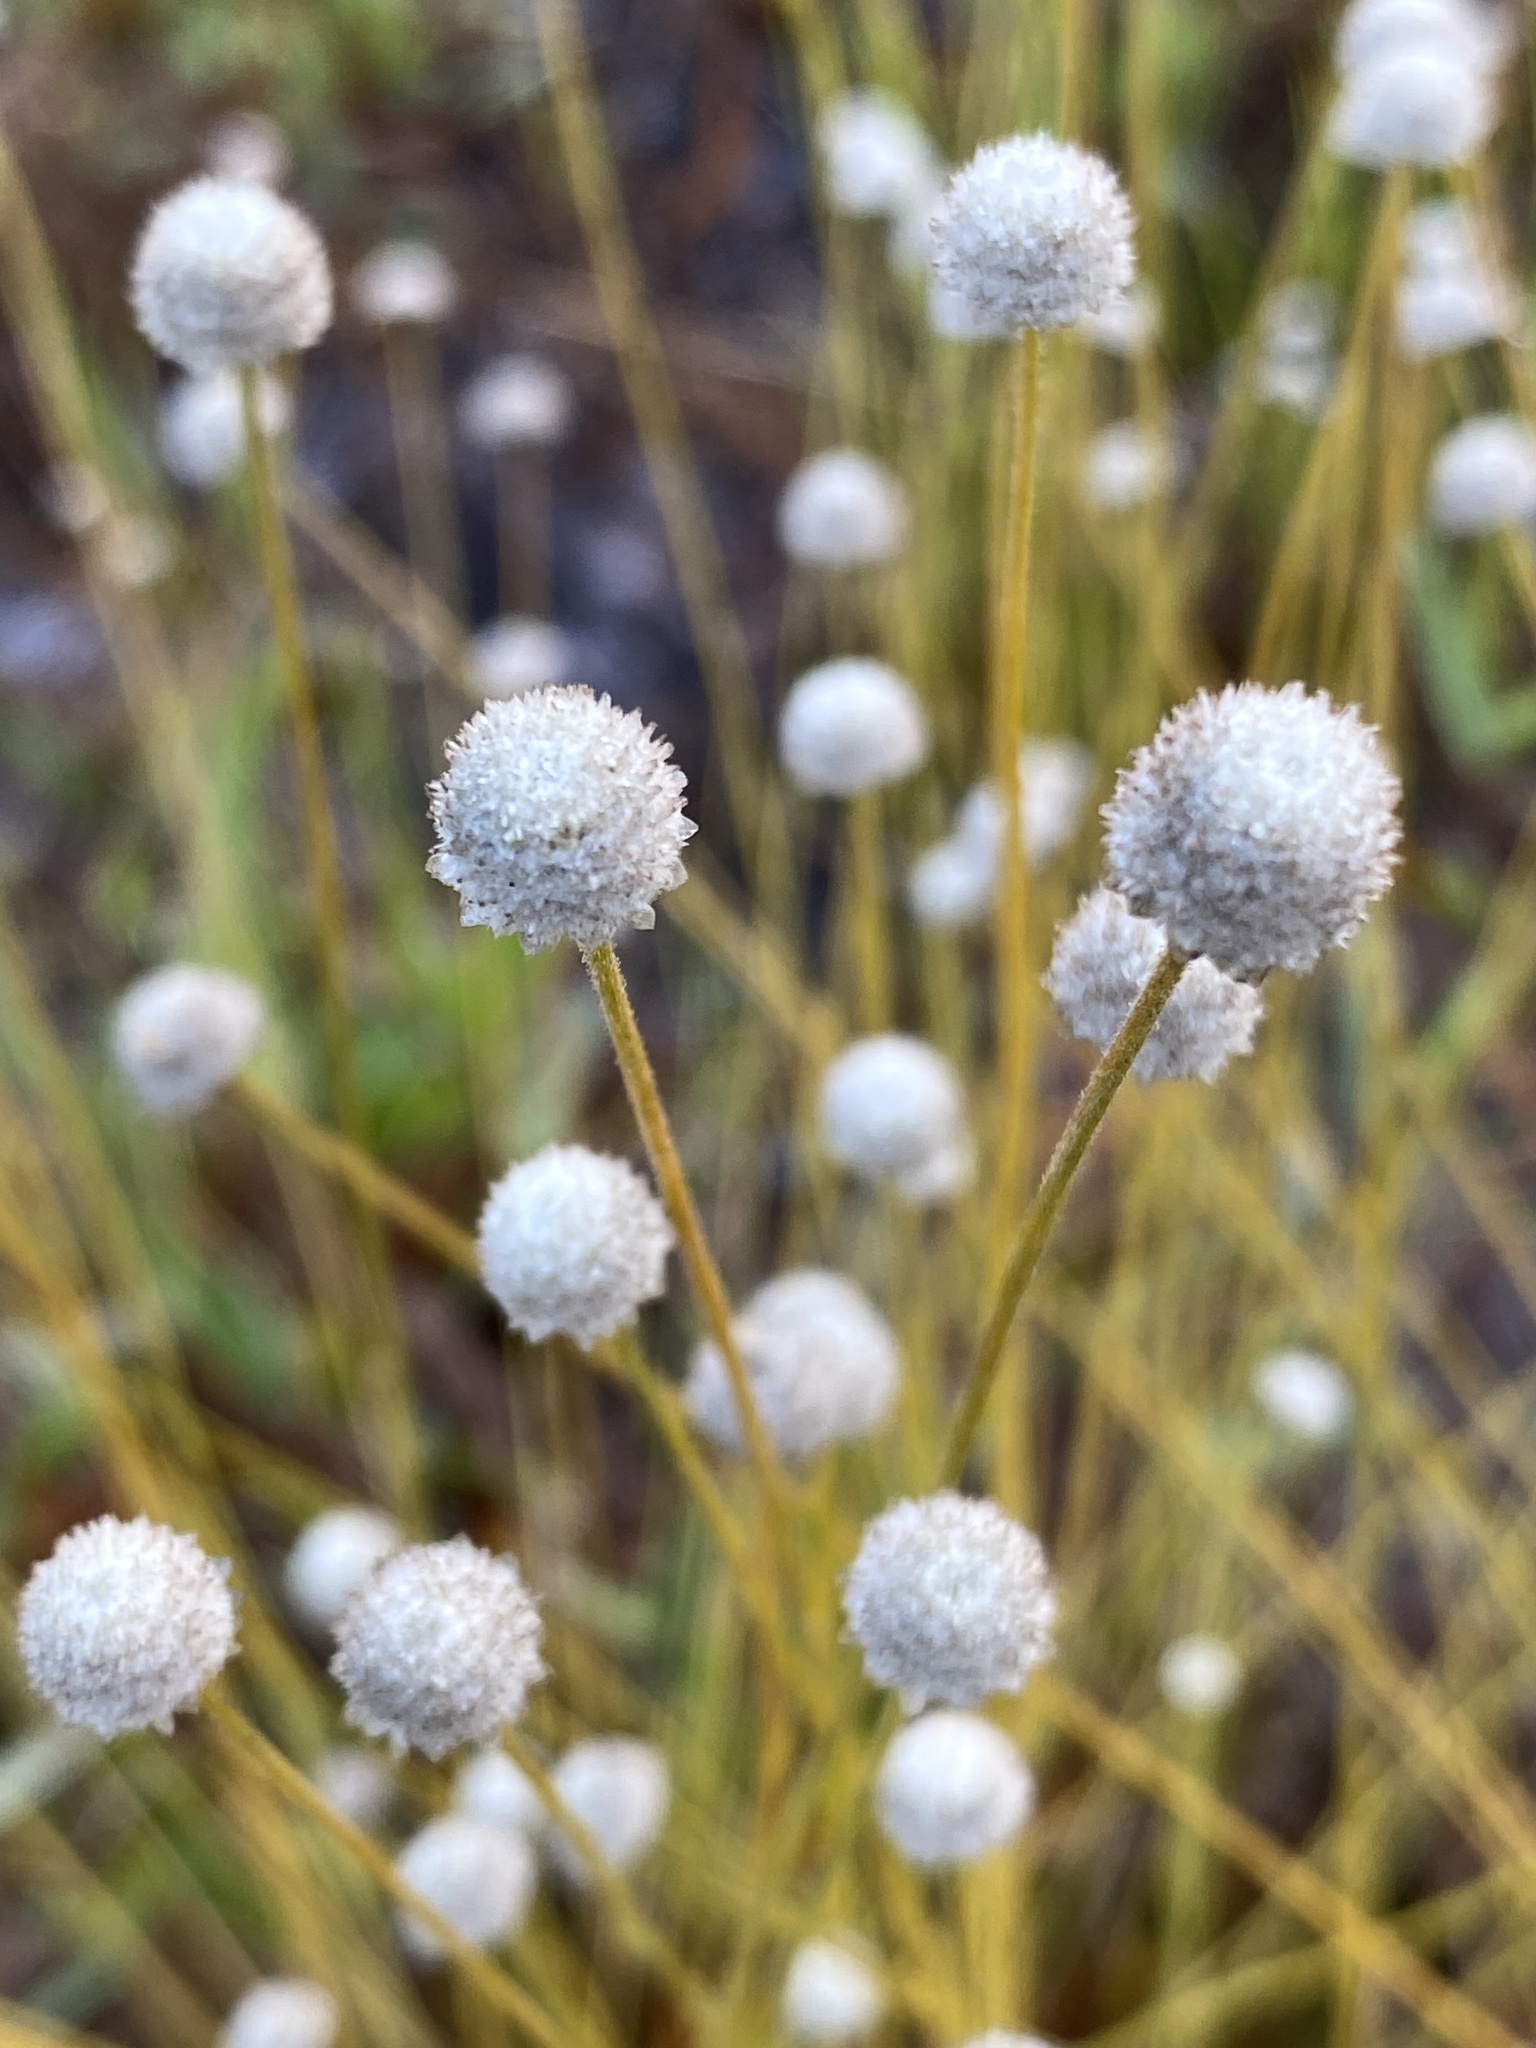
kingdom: Plantae
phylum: Tracheophyta
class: Liliopsida
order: Poales
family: Eriocaulaceae
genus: Syngonanthus
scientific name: Syngonanthus flavidulus
